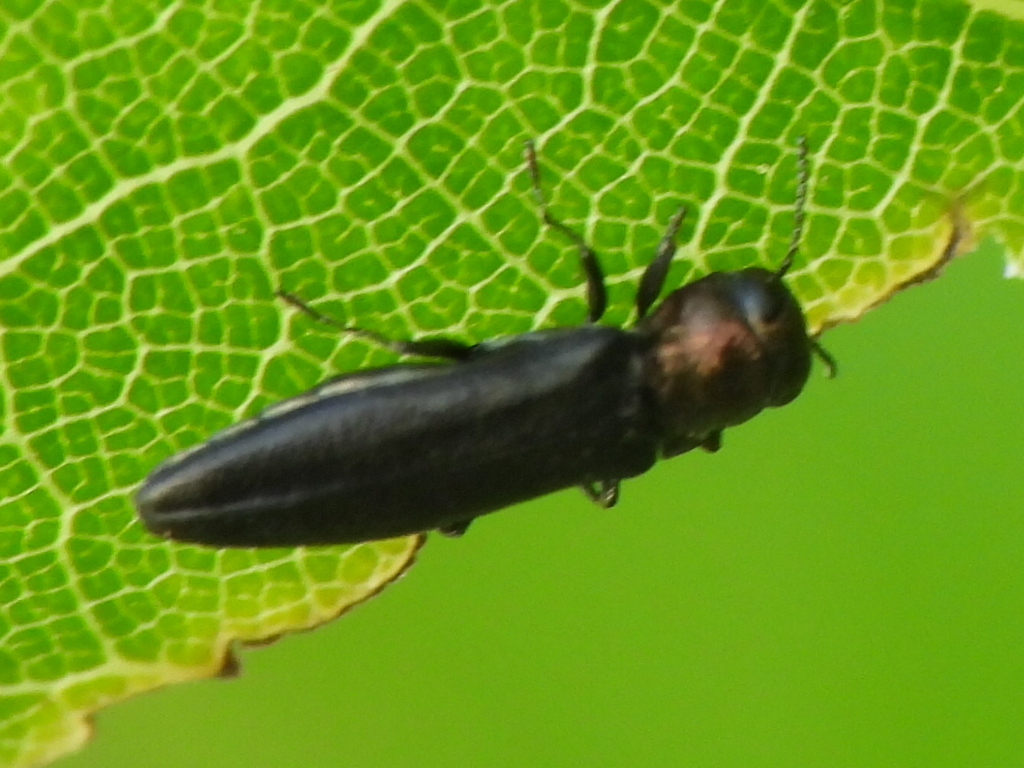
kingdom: Animalia
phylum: Arthropoda
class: Insecta
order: Coleoptera
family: Buprestidae
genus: Agrilus
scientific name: Agrilus ruficollis
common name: Red-necked cane borer beetle
